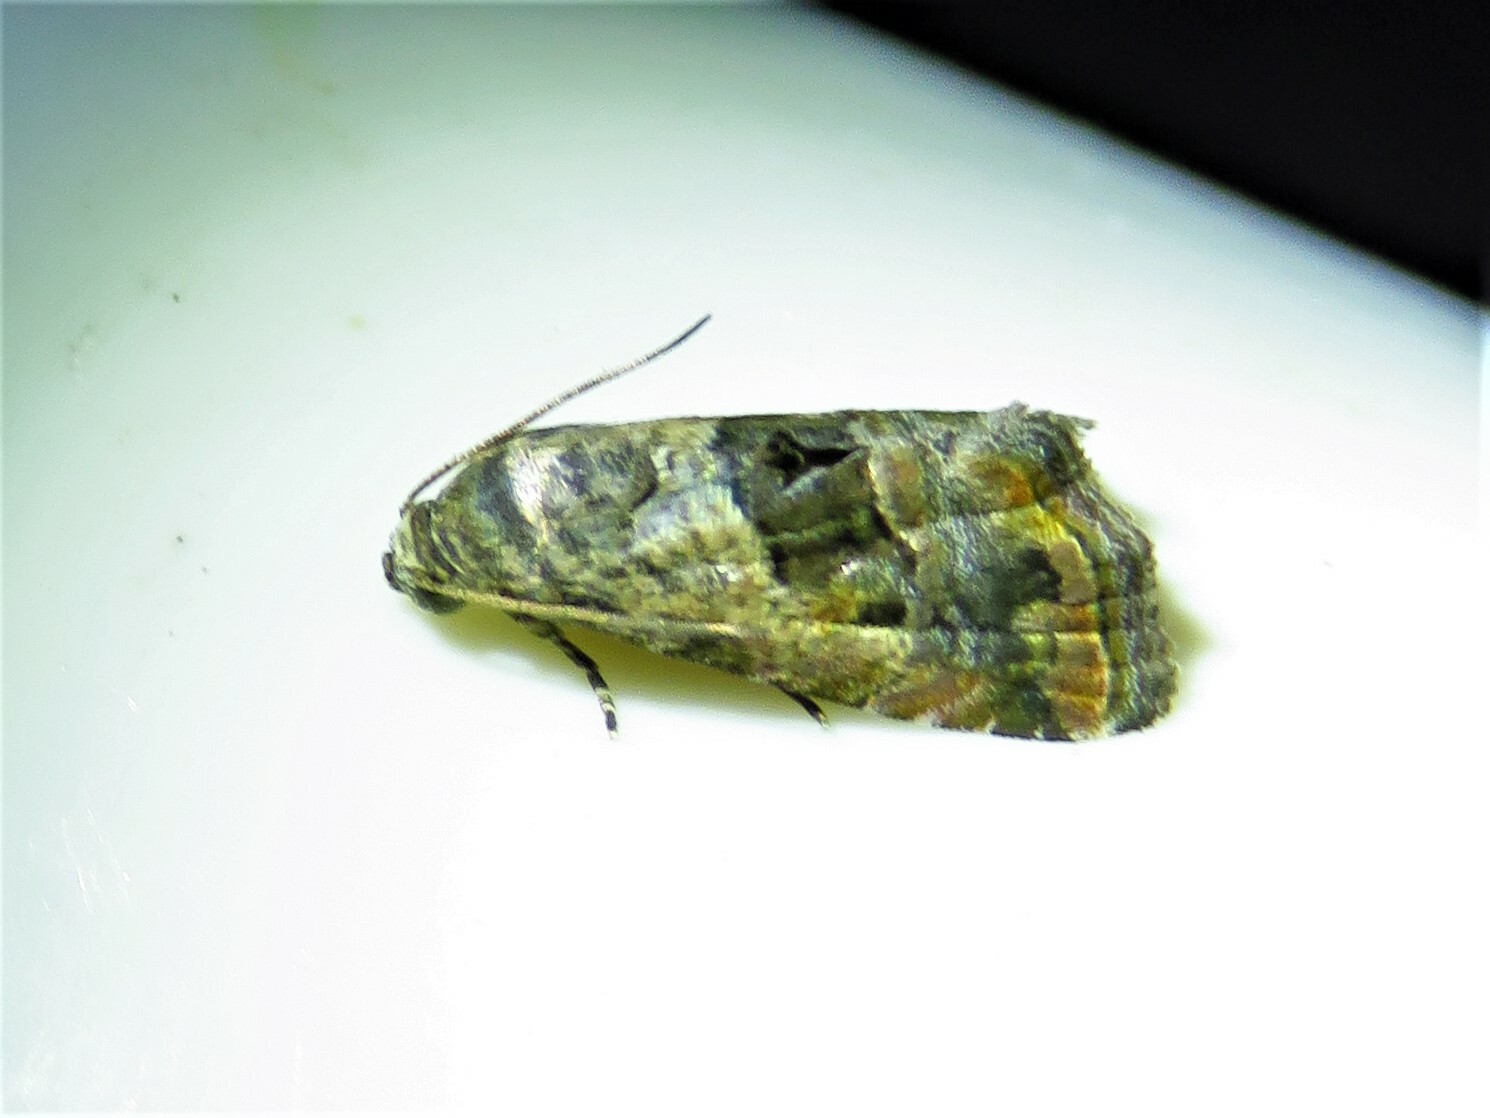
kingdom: Animalia
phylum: Arthropoda
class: Insecta
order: Lepidoptera
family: Noctuidae
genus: Tripudia
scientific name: Tripudia quadrifera
